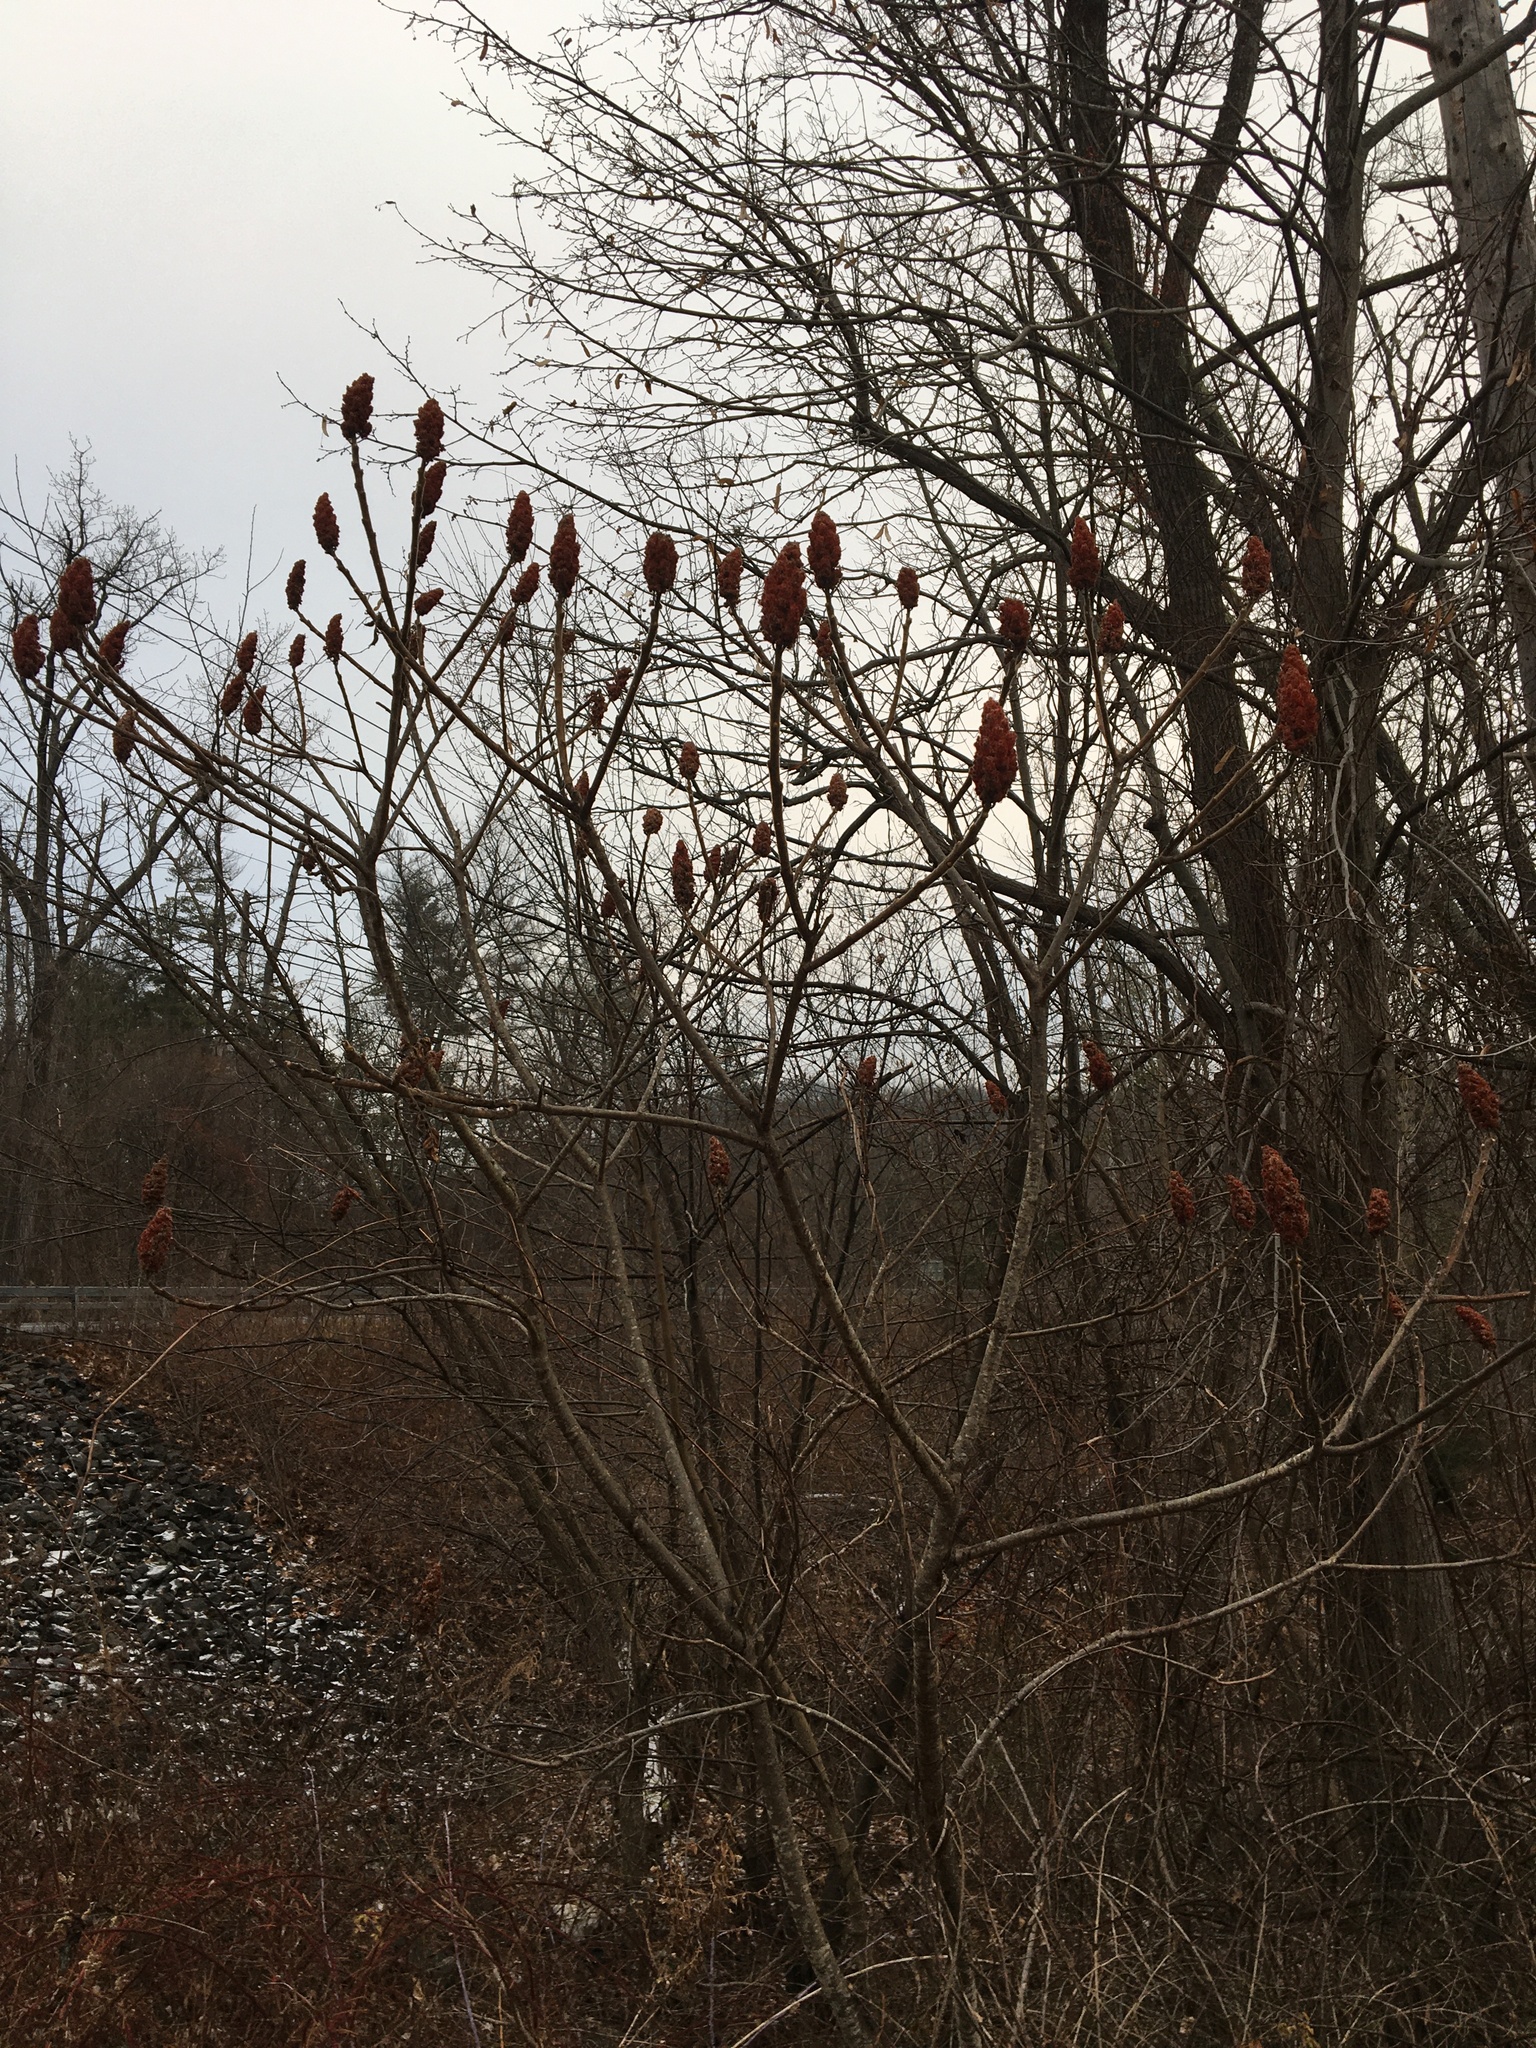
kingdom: Plantae
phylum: Tracheophyta
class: Magnoliopsida
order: Sapindales
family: Anacardiaceae
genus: Rhus
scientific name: Rhus typhina
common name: Staghorn sumac
